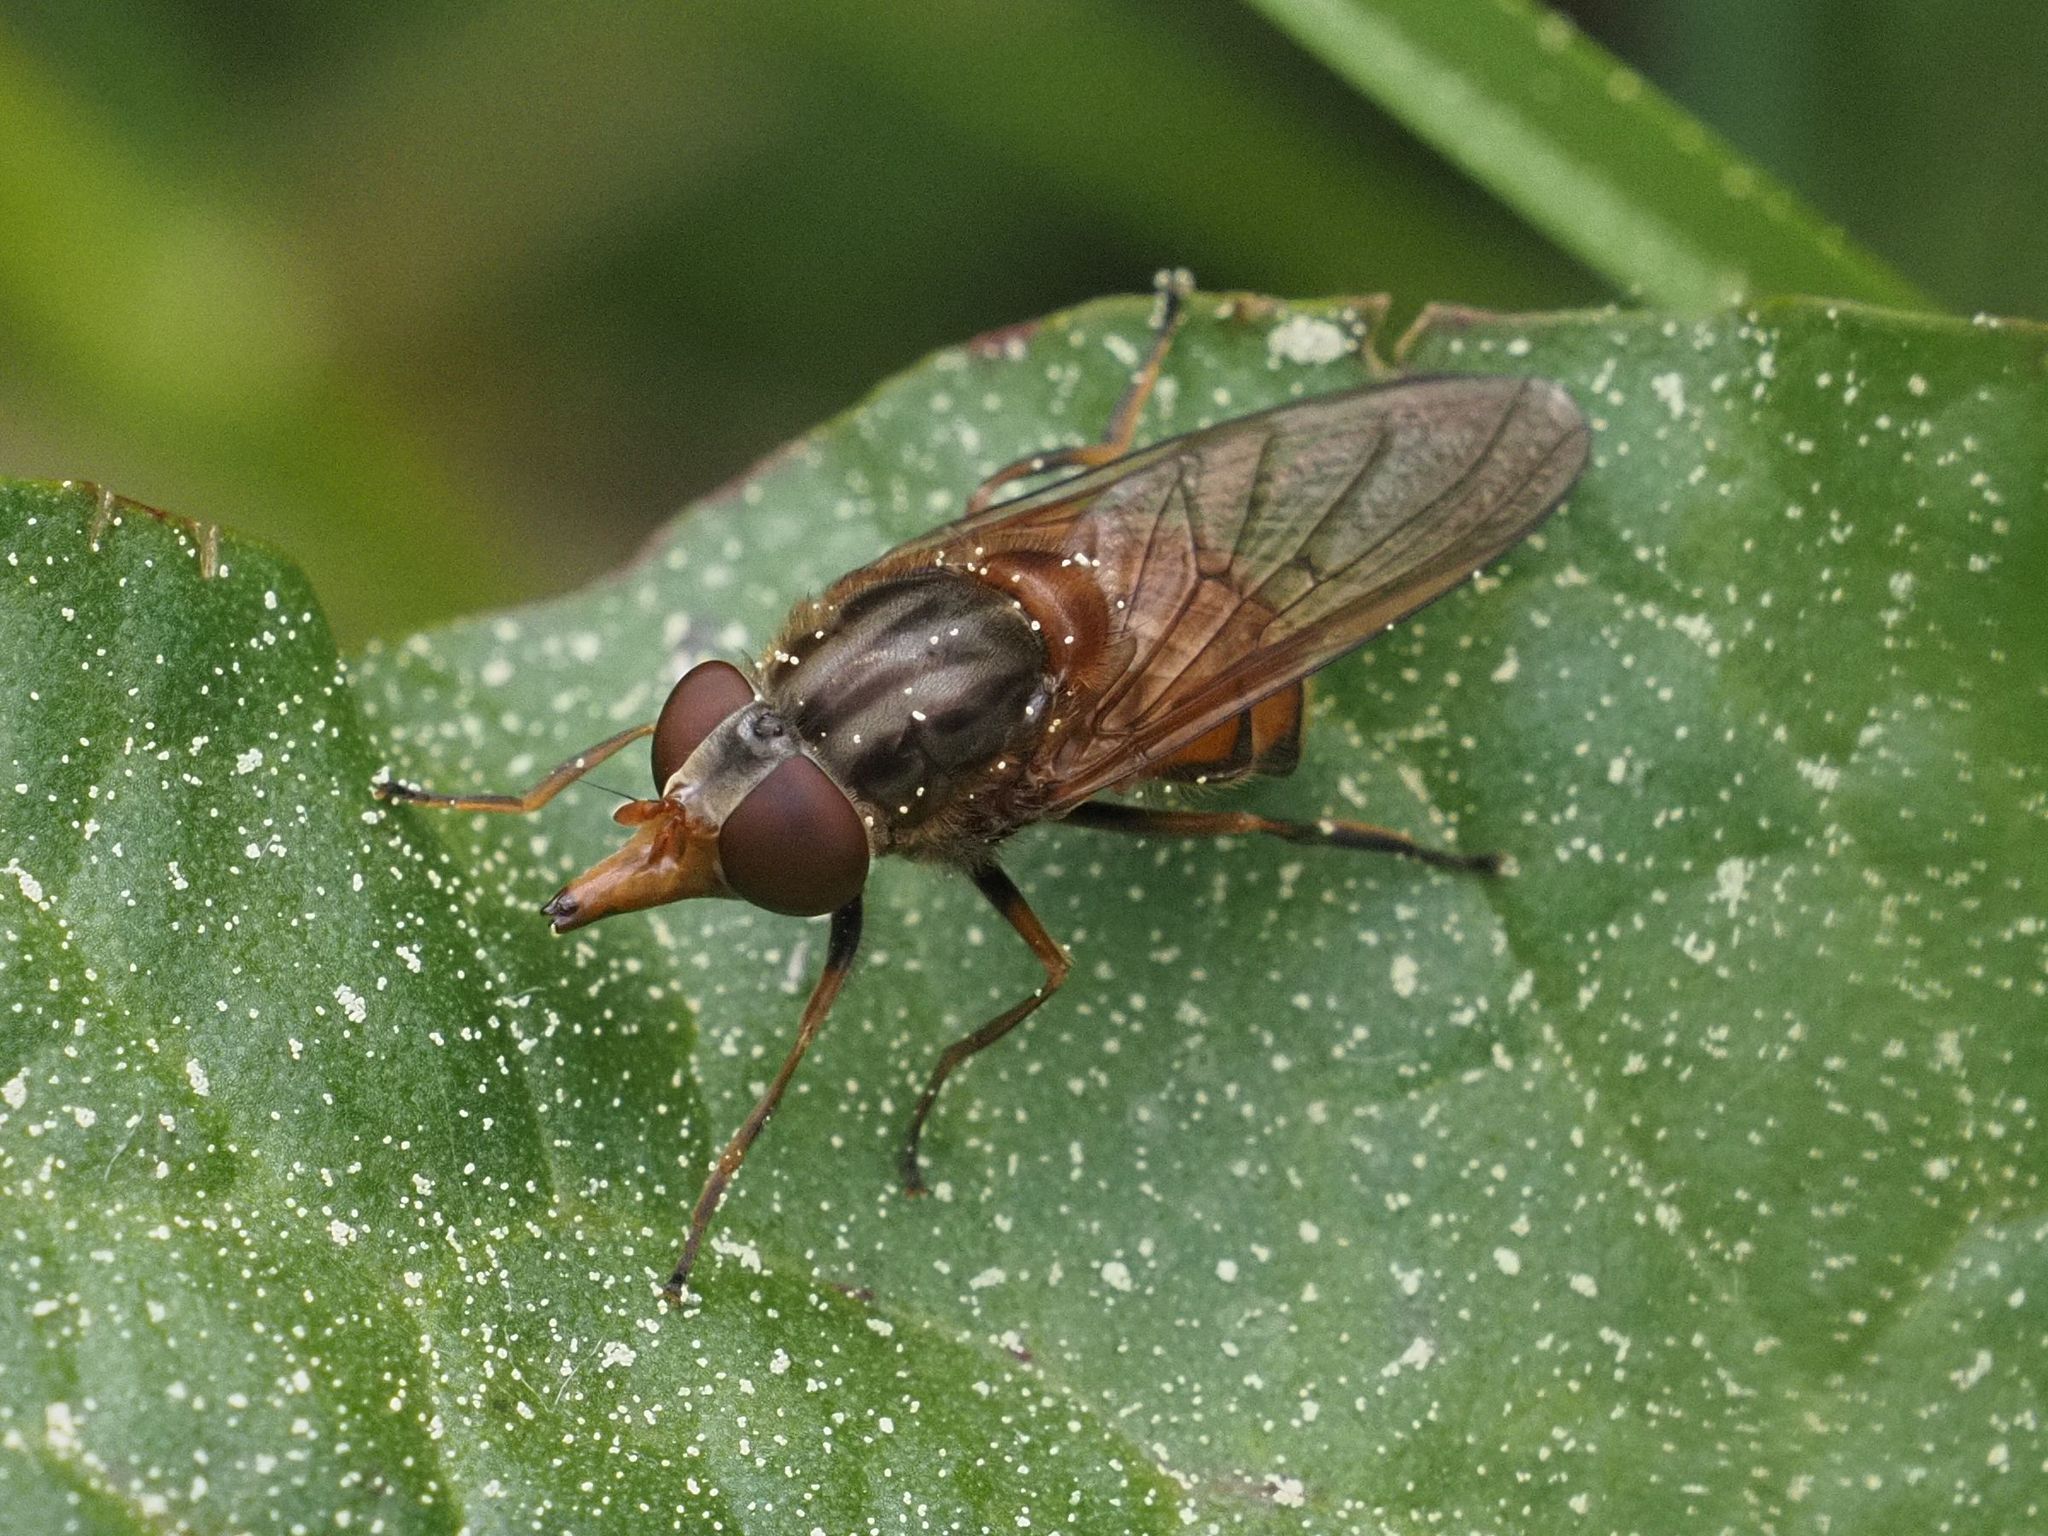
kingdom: Animalia
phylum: Arthropoda
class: Insecta
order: Diptera
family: Syrphidae
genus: Rhingia
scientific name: Rhingia campestris
